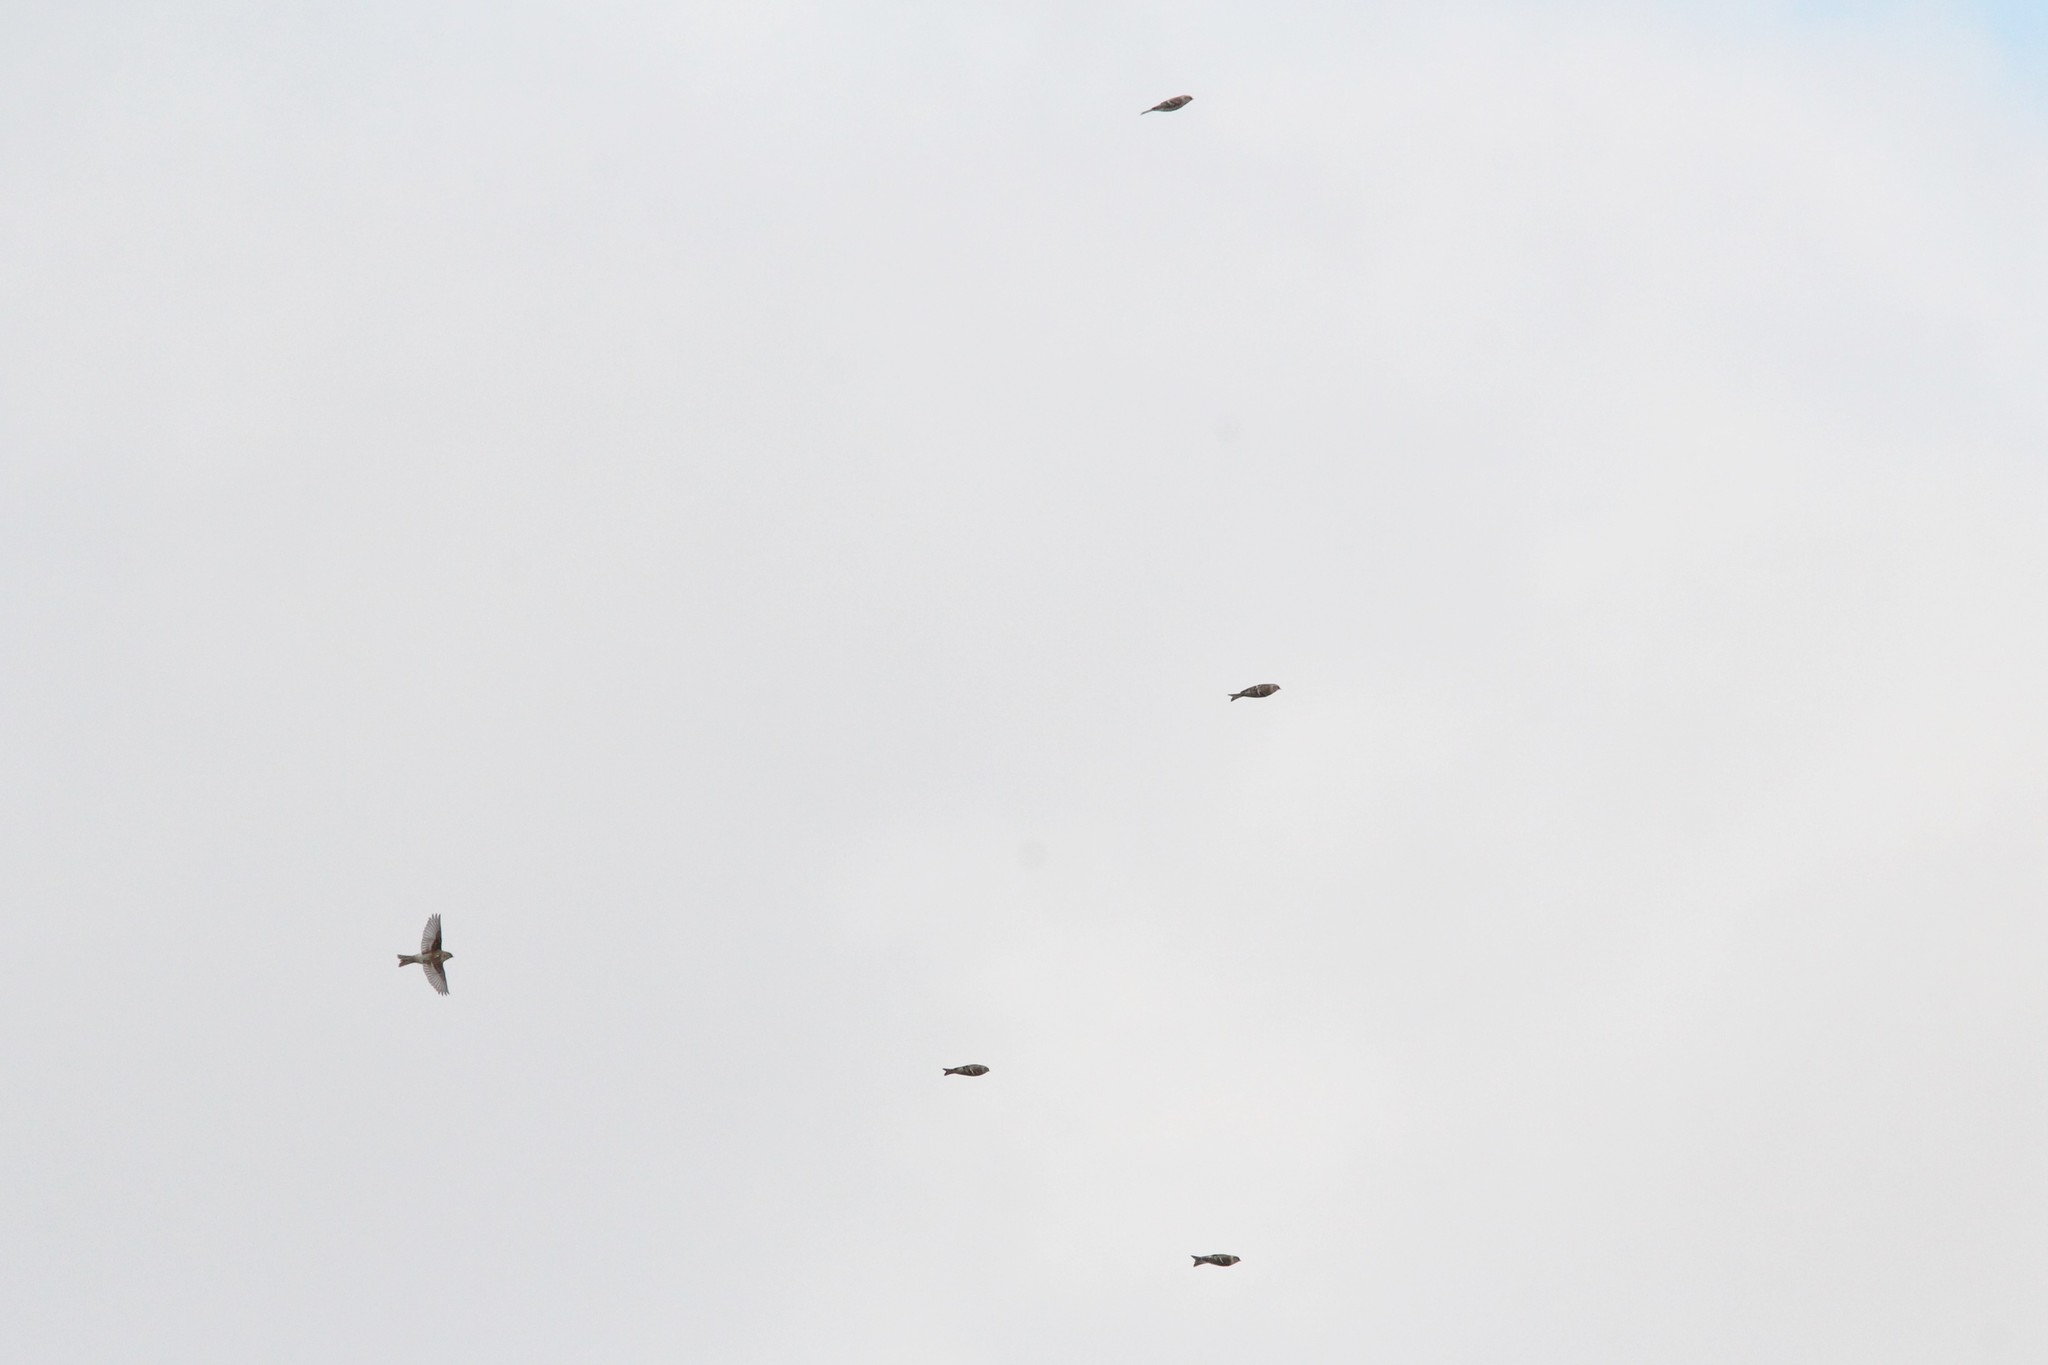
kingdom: Animalia
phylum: Chordata
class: Aves
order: Passeriformes
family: Fringillidae
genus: Acanthis
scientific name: Acanthis flammea
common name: Common redpoll
